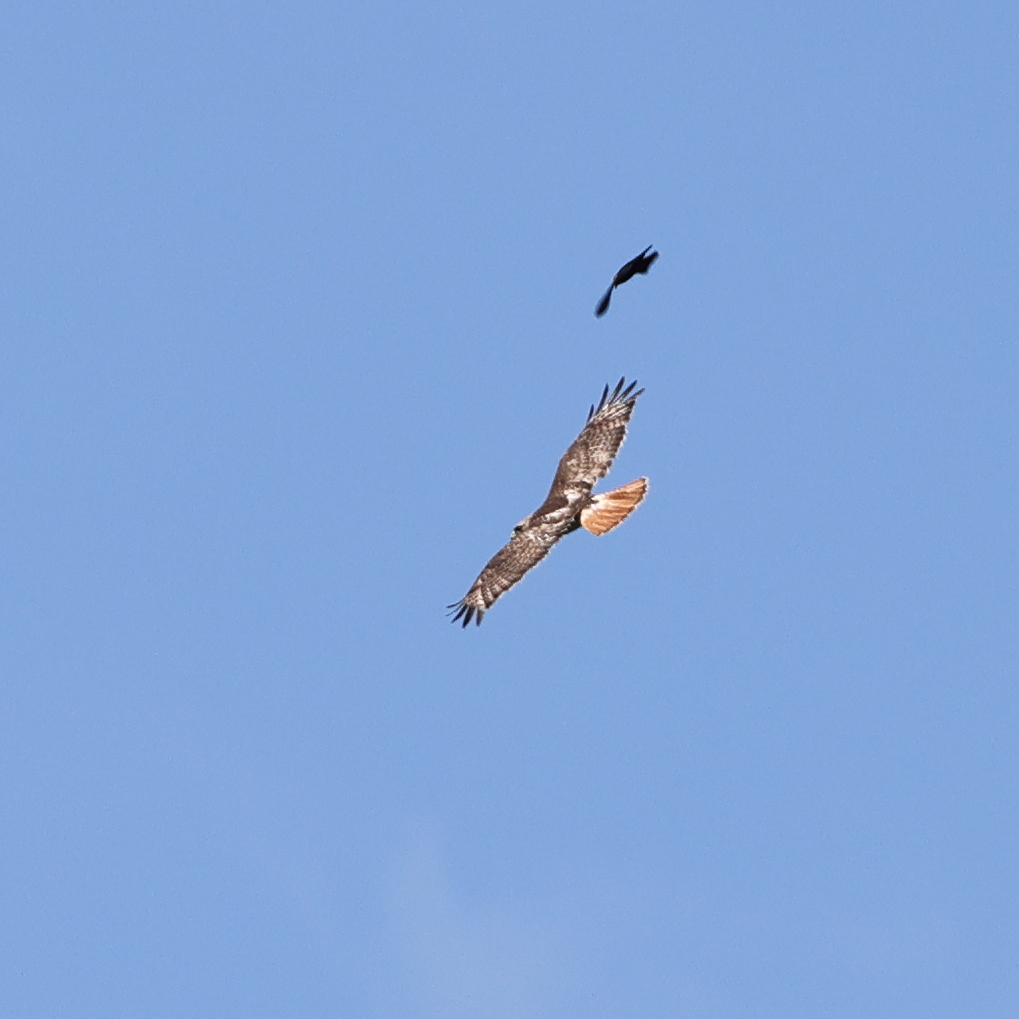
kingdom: Animalia
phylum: Chordata
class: Aves
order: Accipitriformes
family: Accipitridae
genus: Buteo
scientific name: Buteo jamaicensis
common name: Red-tailed hawk
